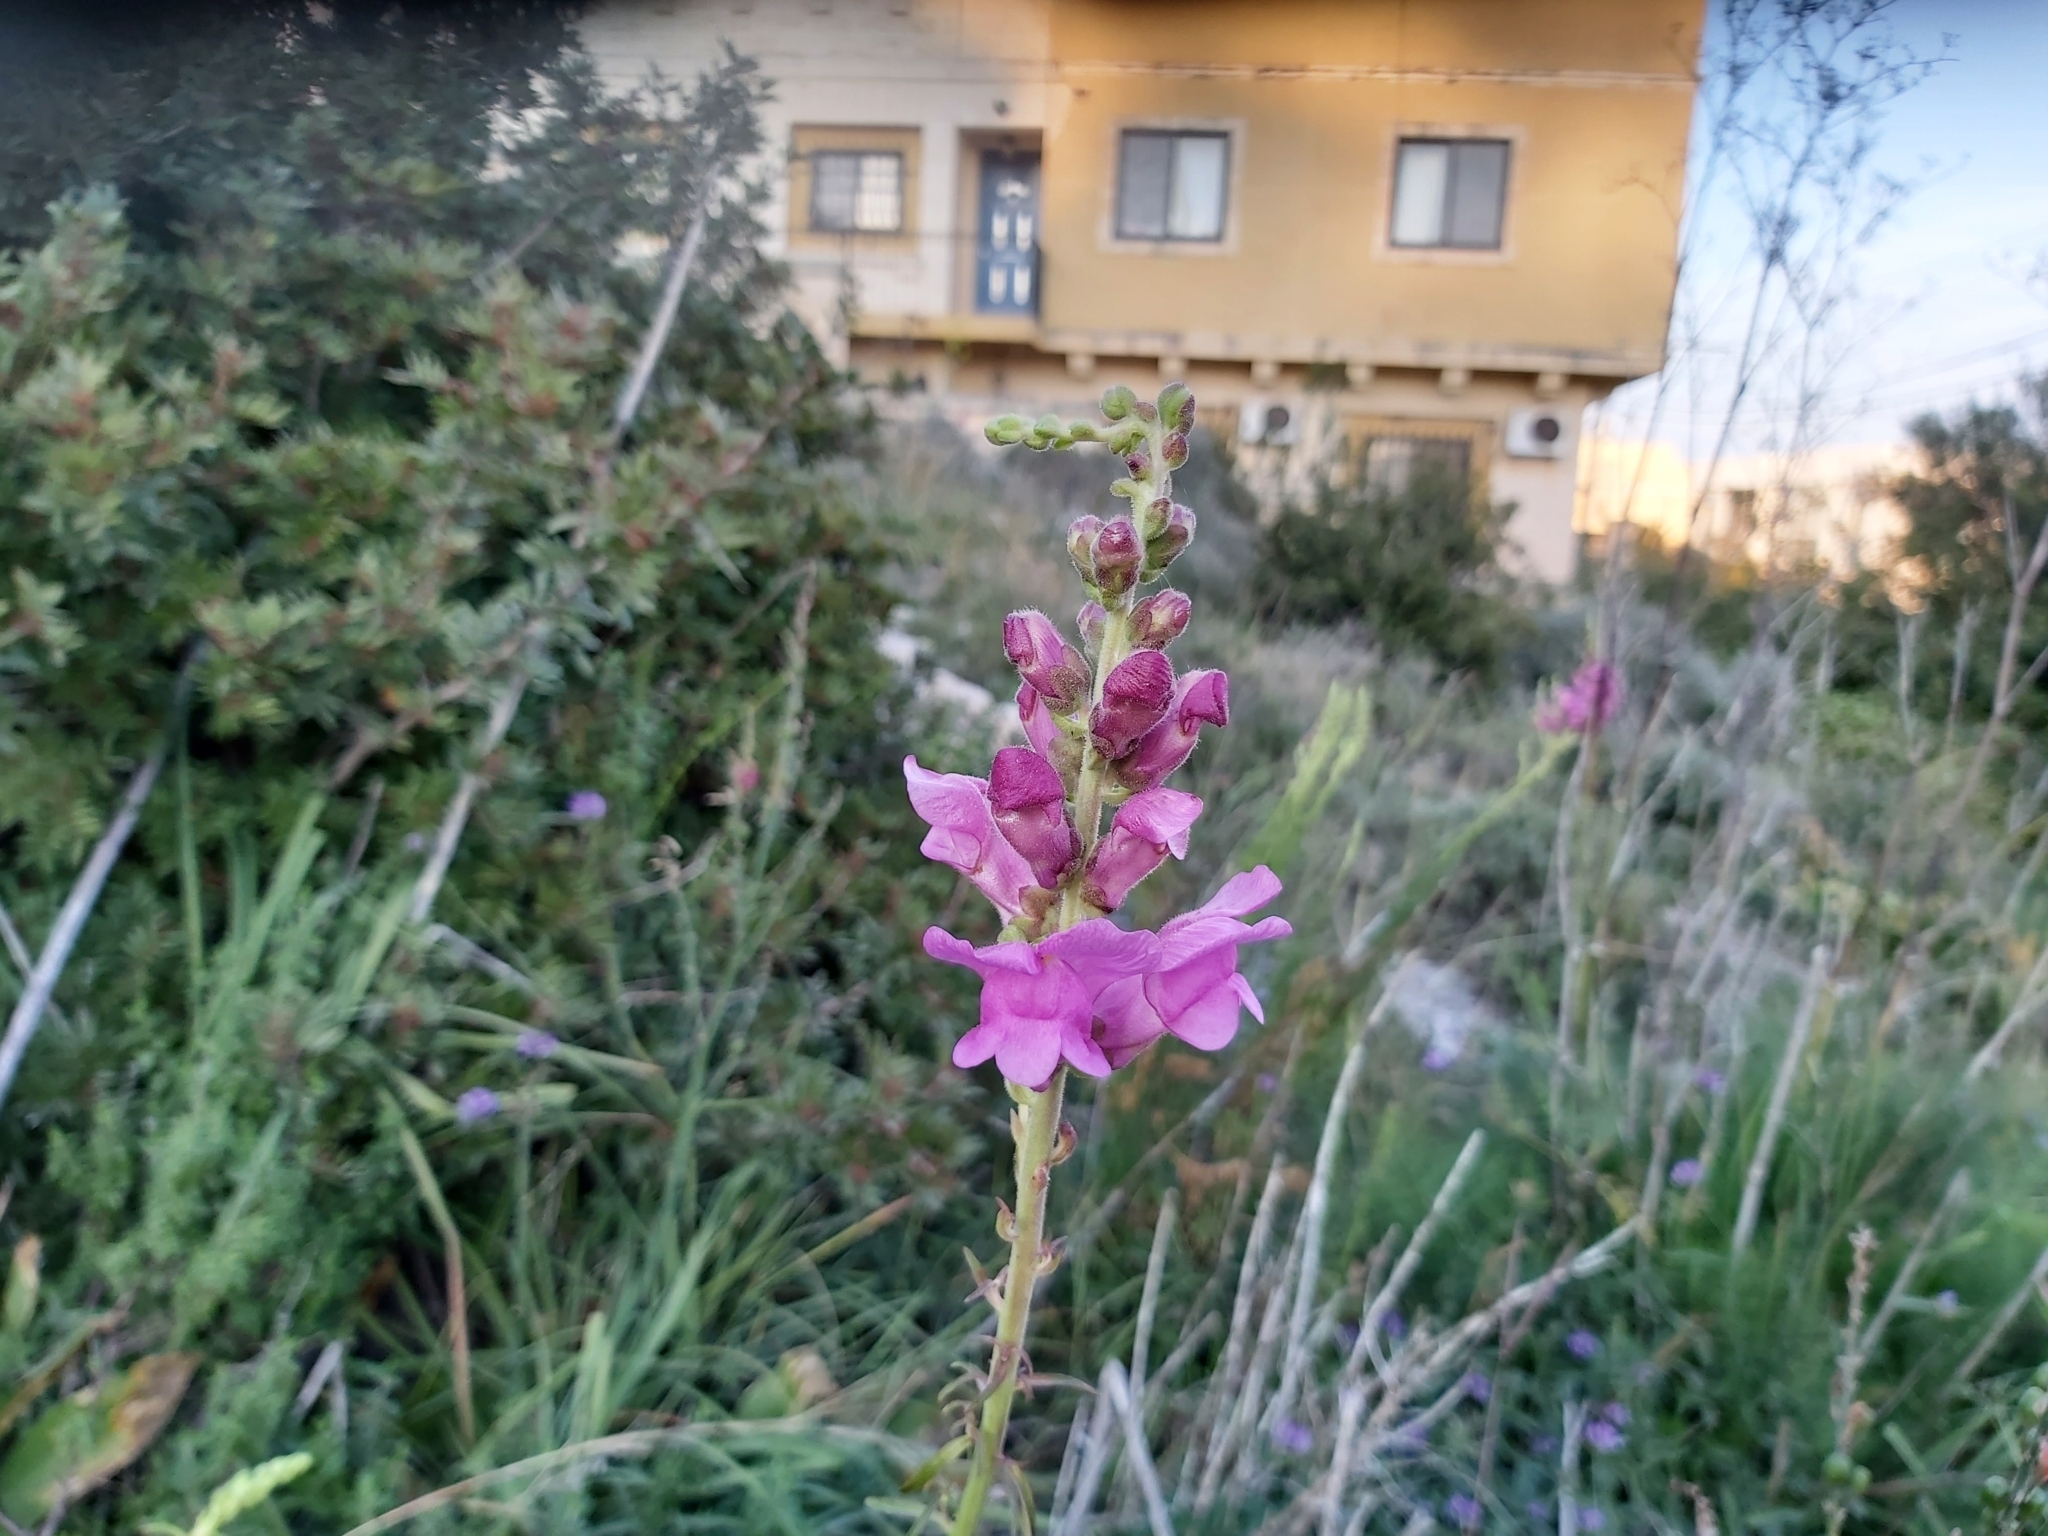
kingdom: Plantae
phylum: Tracheophyta
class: Magnoliopsida
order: Lamiales
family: Plantaginaceae
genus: Antirrhinum
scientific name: Antirrhinum tortuosum
